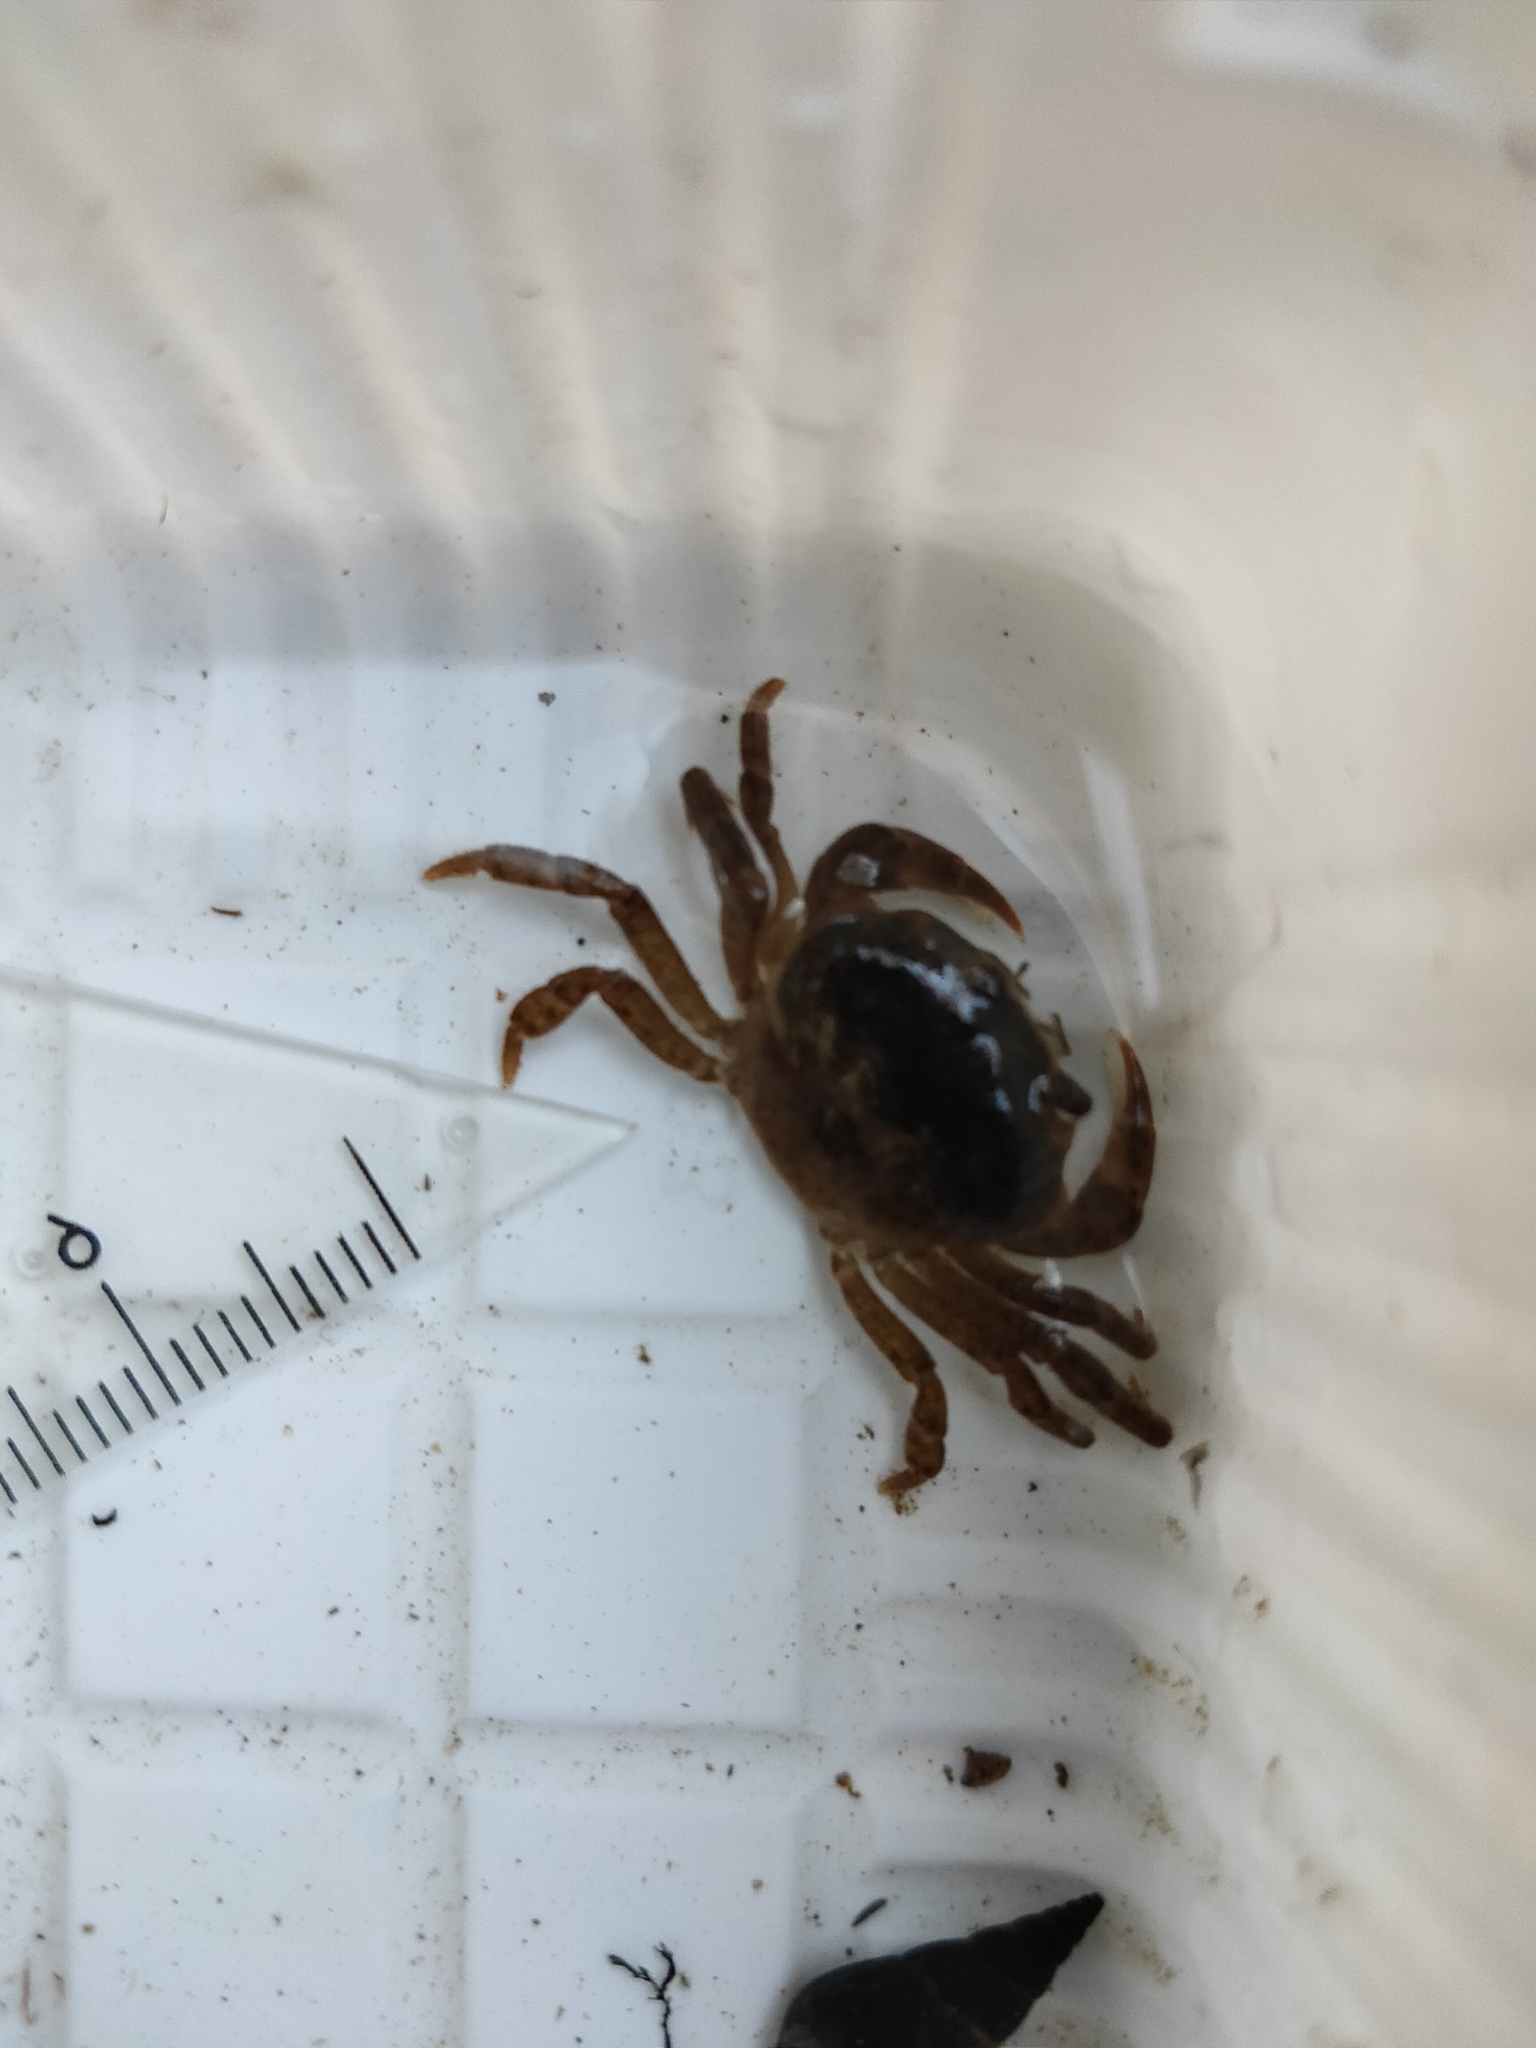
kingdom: Animalia
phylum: Arthropoda
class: Malacostraca
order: Decapoda
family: Potamidae
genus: Geothelphusa
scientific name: Geothelphusa dehaani
